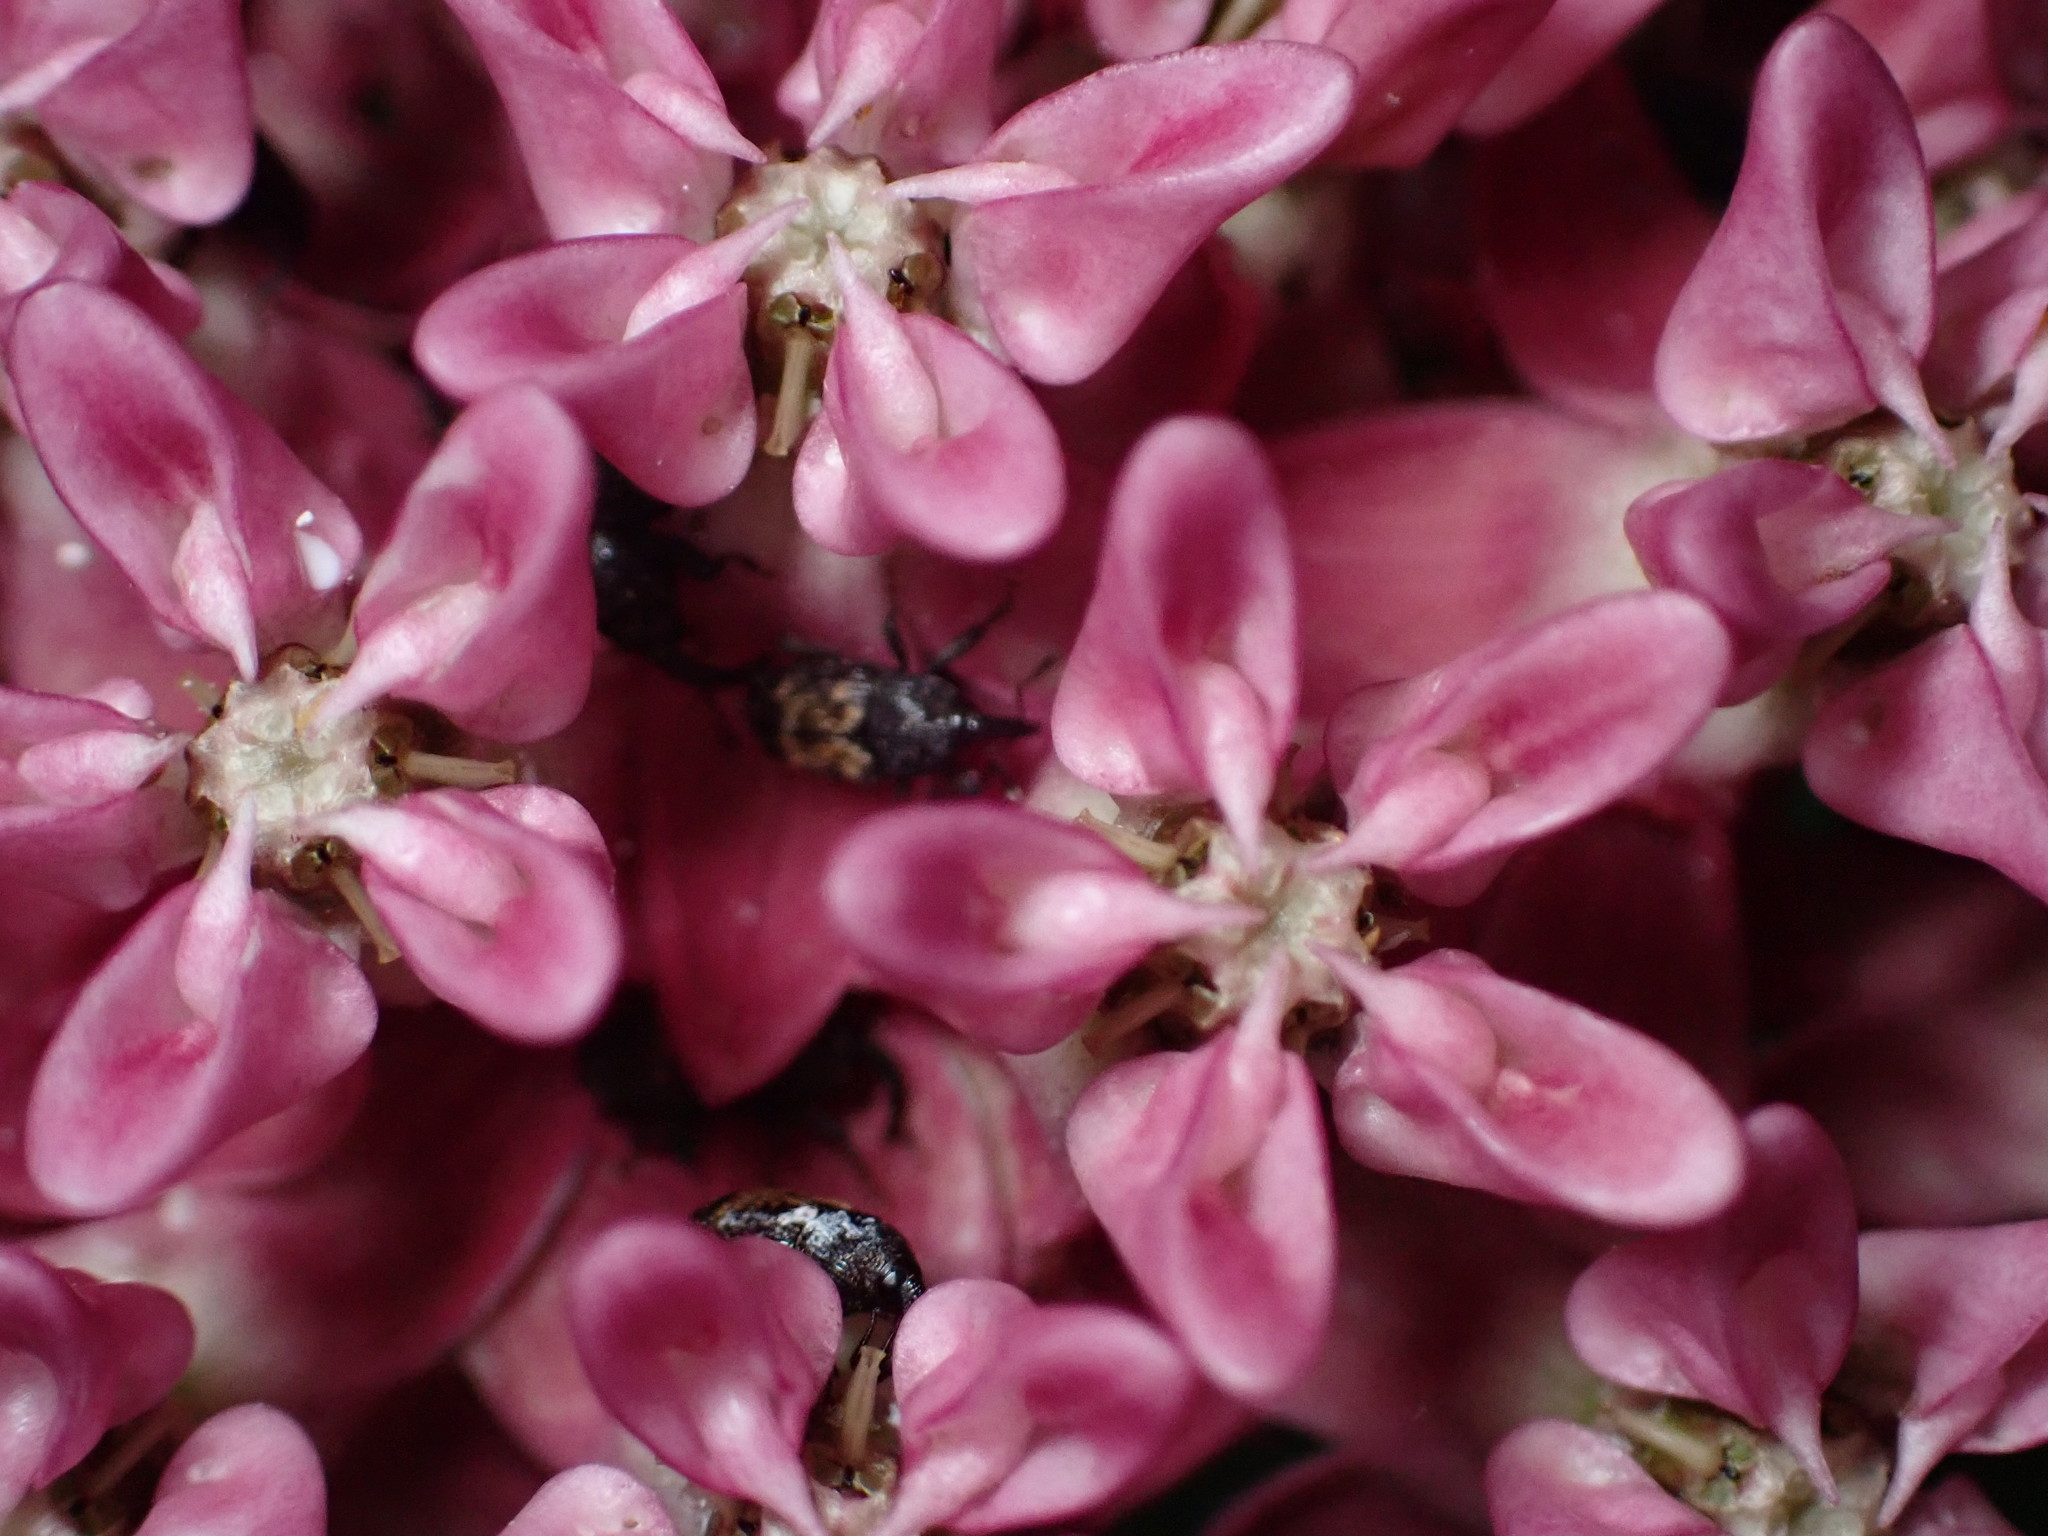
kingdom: Animalia
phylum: Arthropoda
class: Insecta
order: Coleoptera
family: Curculionidae
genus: Glyptobaris
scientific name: Glyptobaris lecontei
